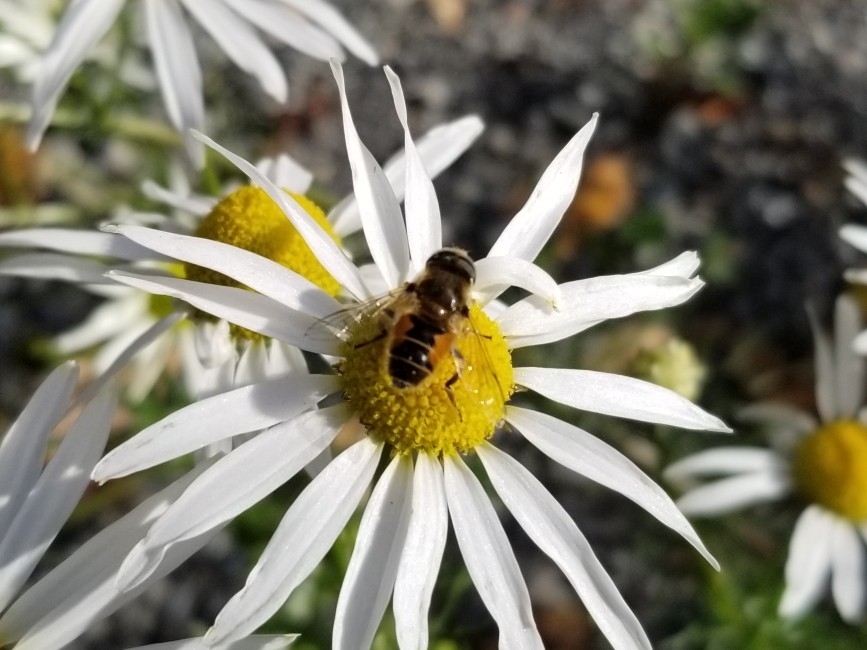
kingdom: Animalia
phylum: Arthropoda
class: Insecta
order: Diptera
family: Syrphidae
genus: Eristalis
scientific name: Eristalis arbustorum
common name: Hover fly
